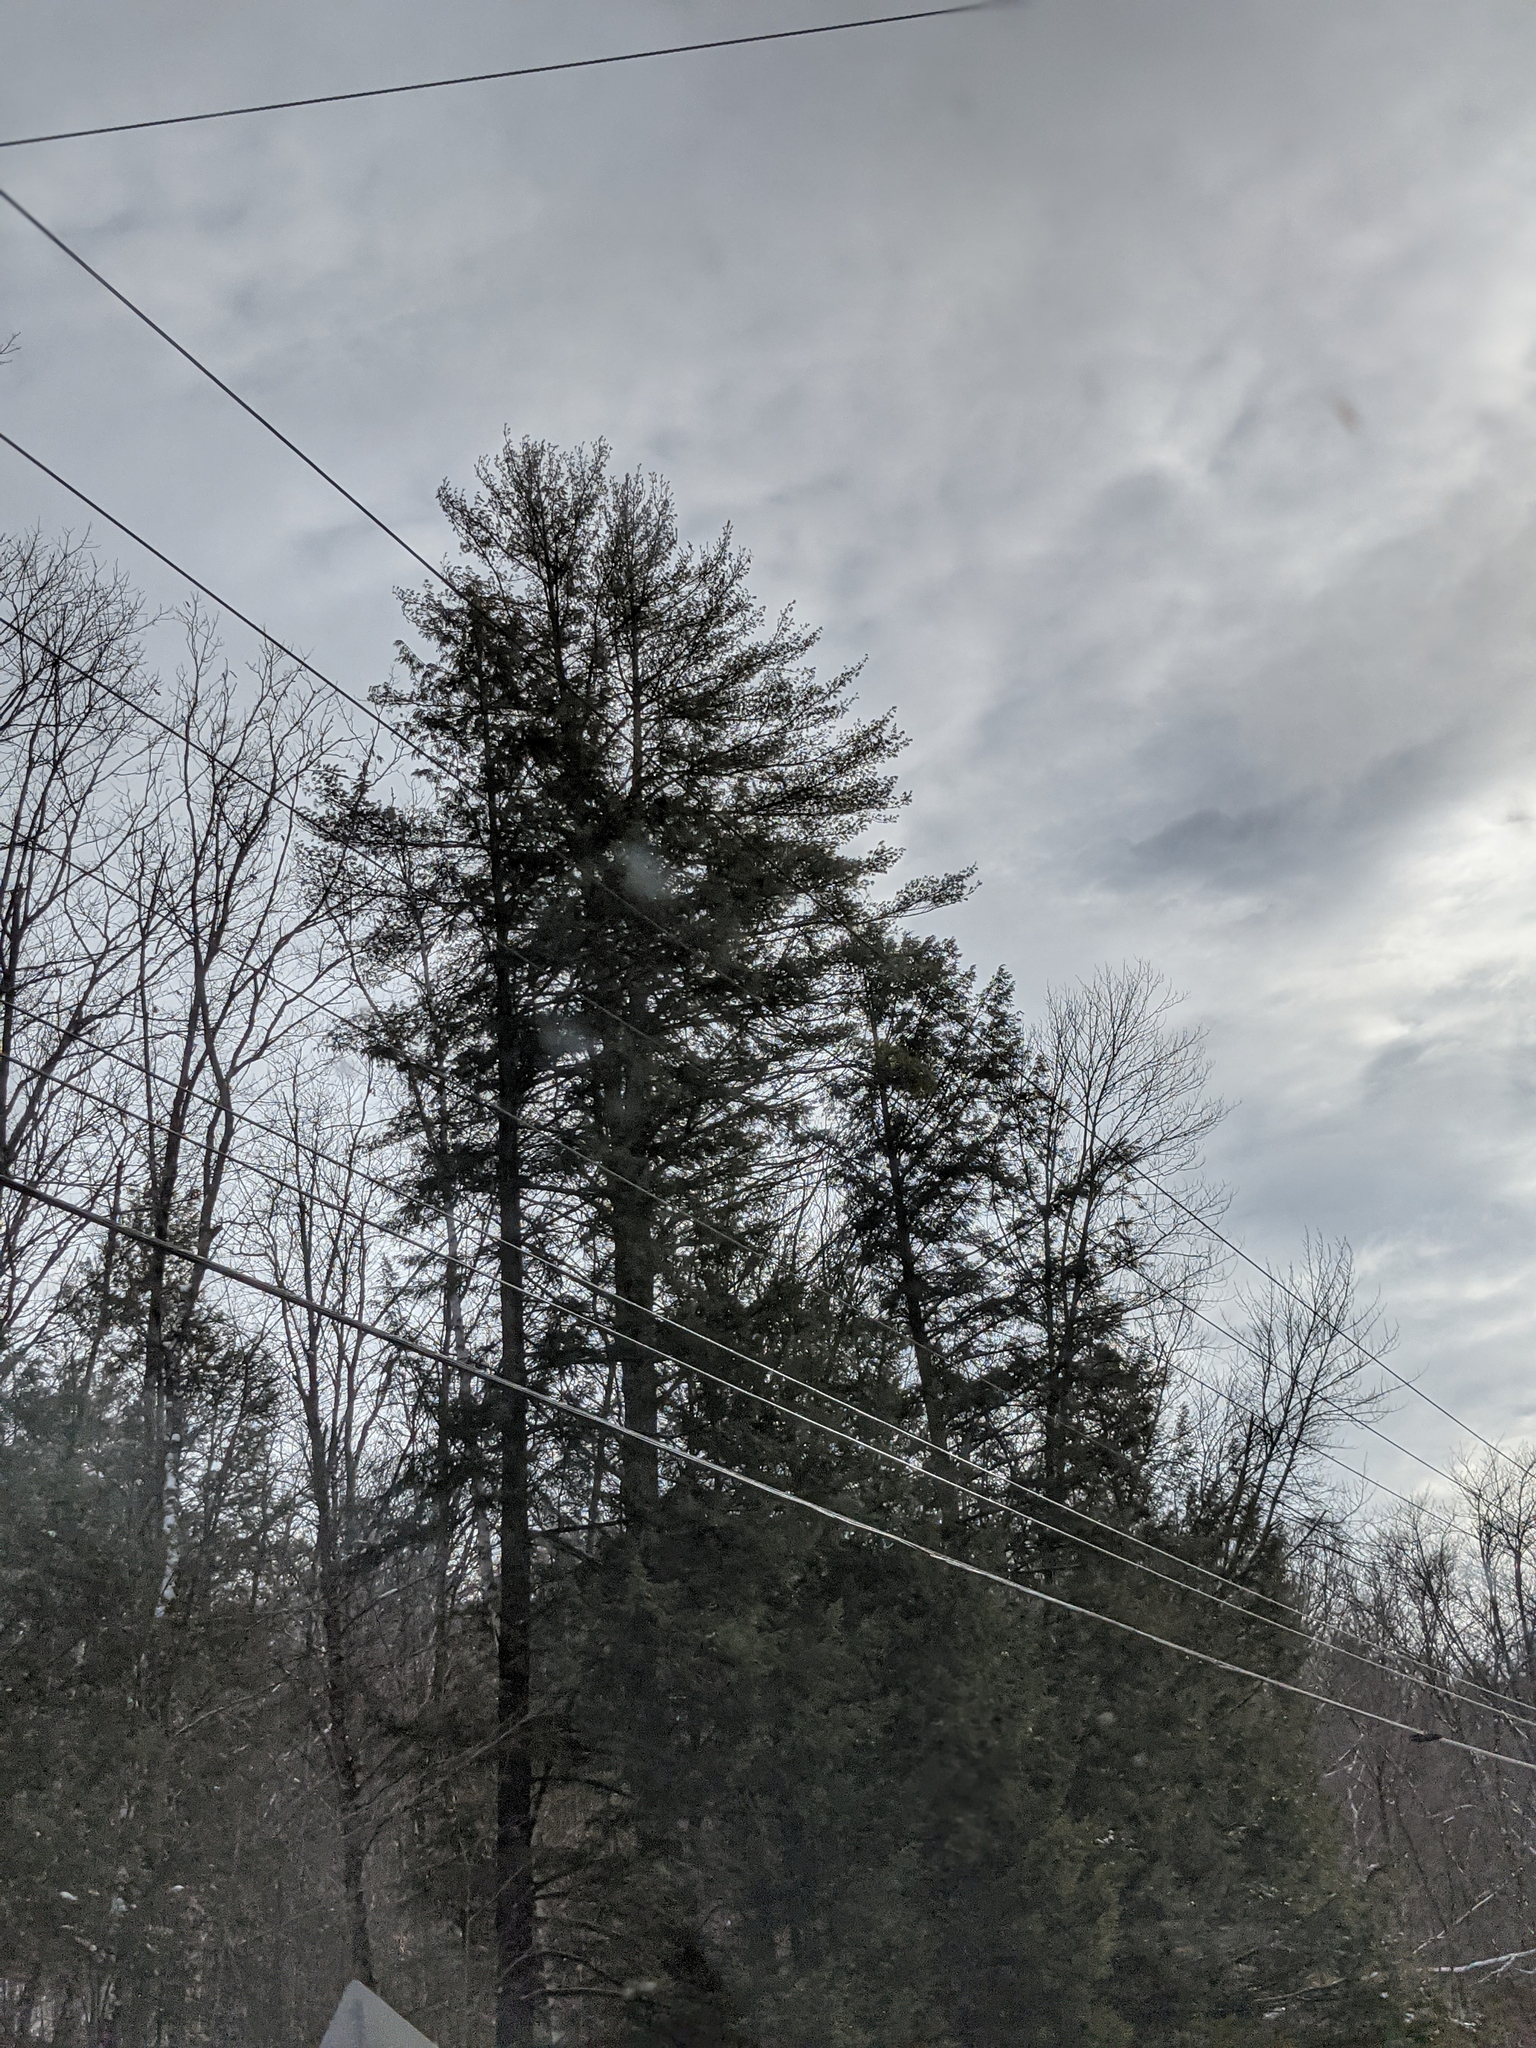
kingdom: Plantae
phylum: Tracheophyta
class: Pinopsida
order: Pinales
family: Pinaceae
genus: Pinus
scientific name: Pinus strobus
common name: Weymouth pine
